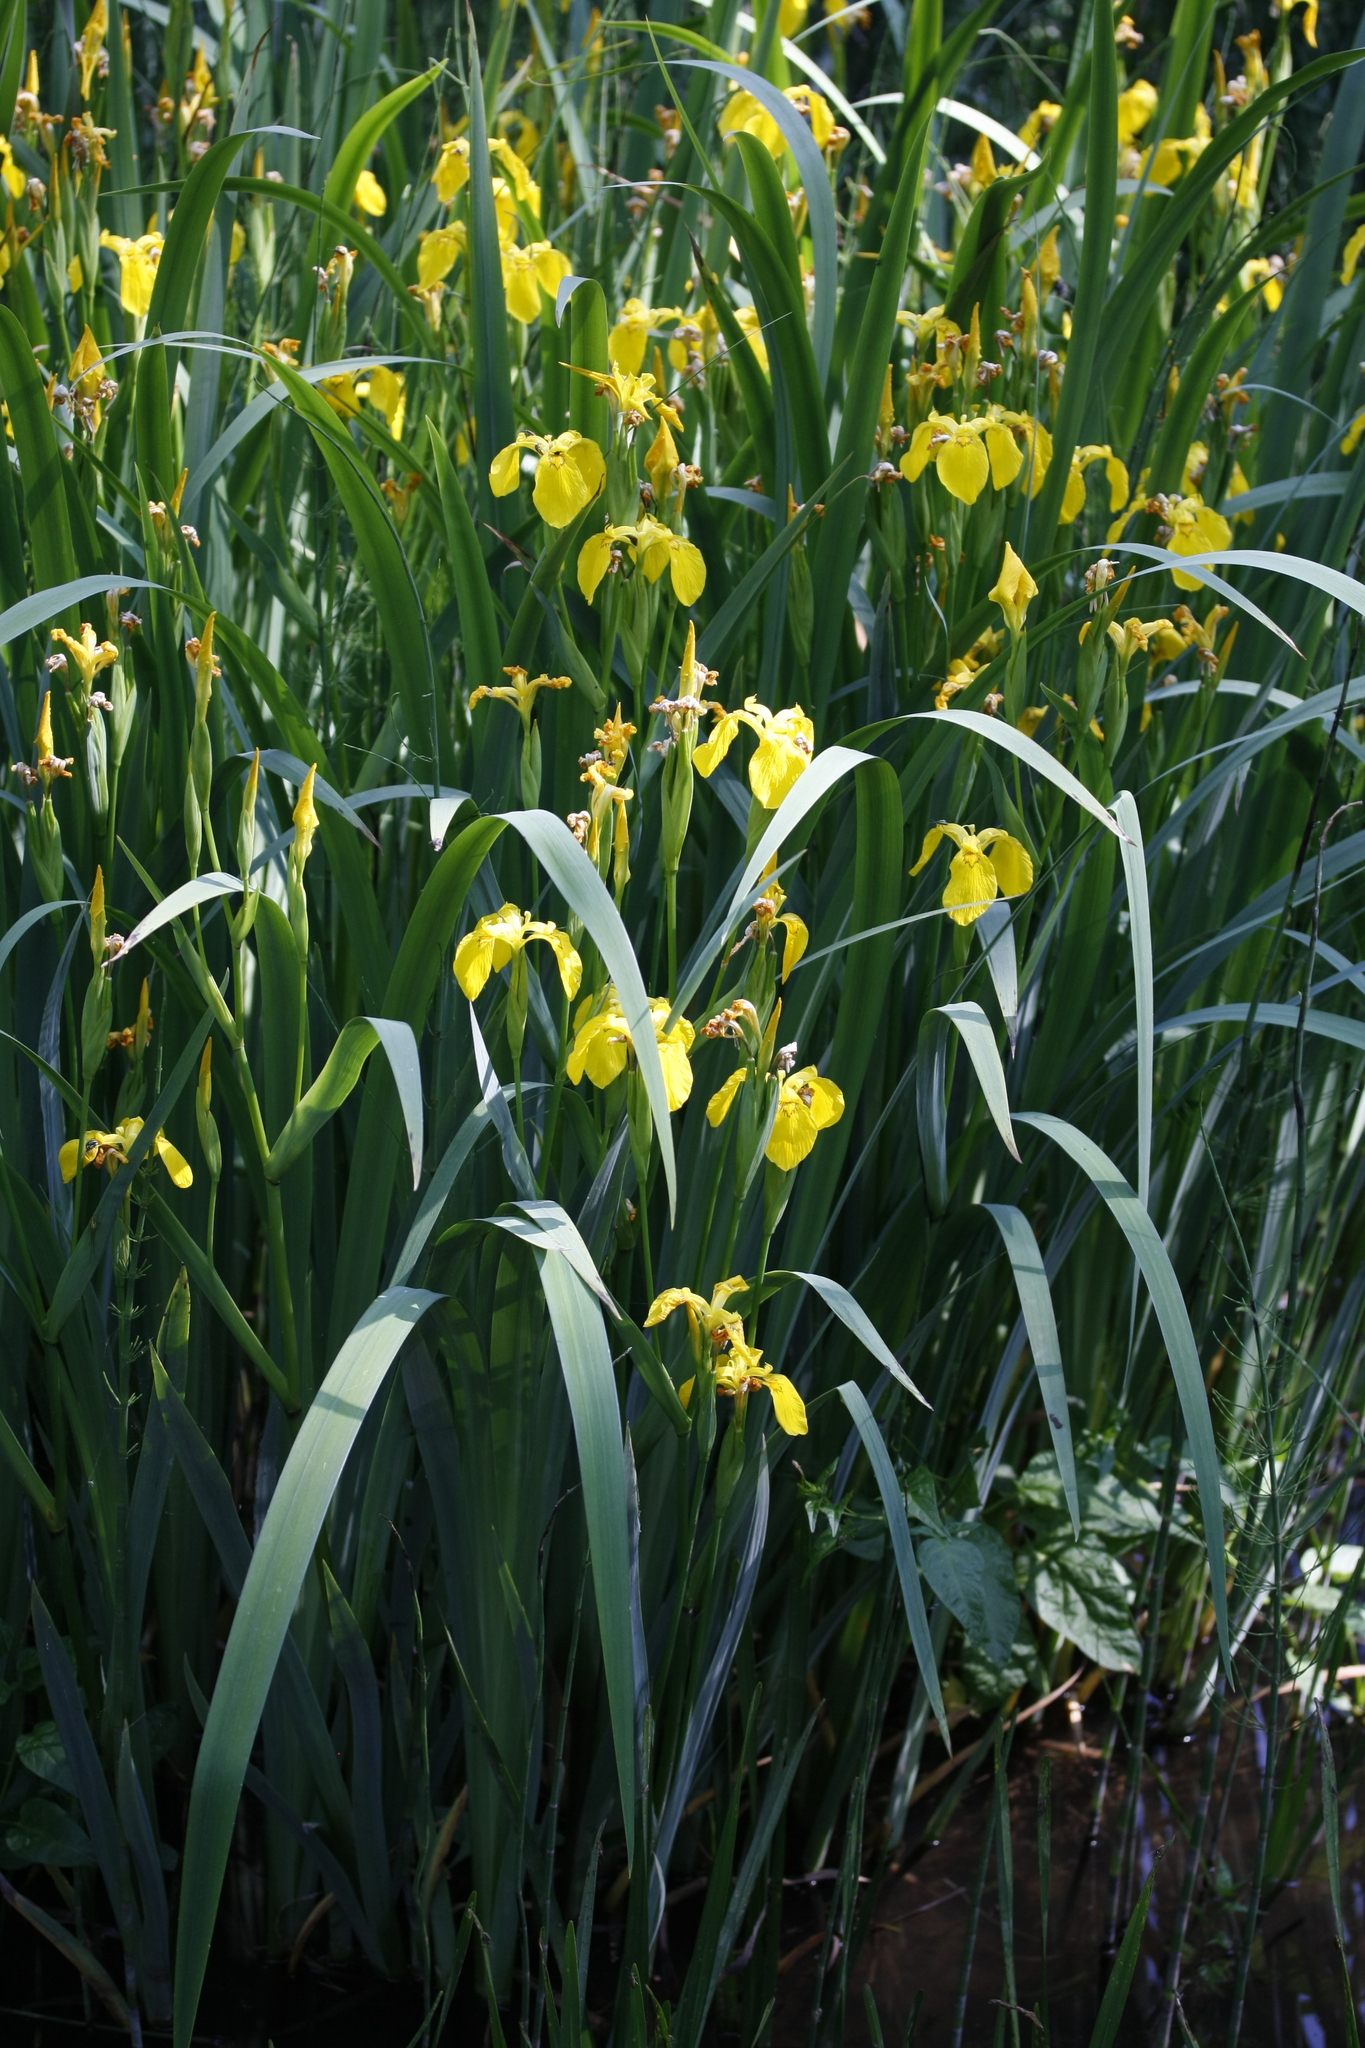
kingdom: Plantae
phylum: Tracheophyta
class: Liliopsida
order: Asparagales
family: Iridaceae
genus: Iris
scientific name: Iris pseudacorus
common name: Yellow flag
